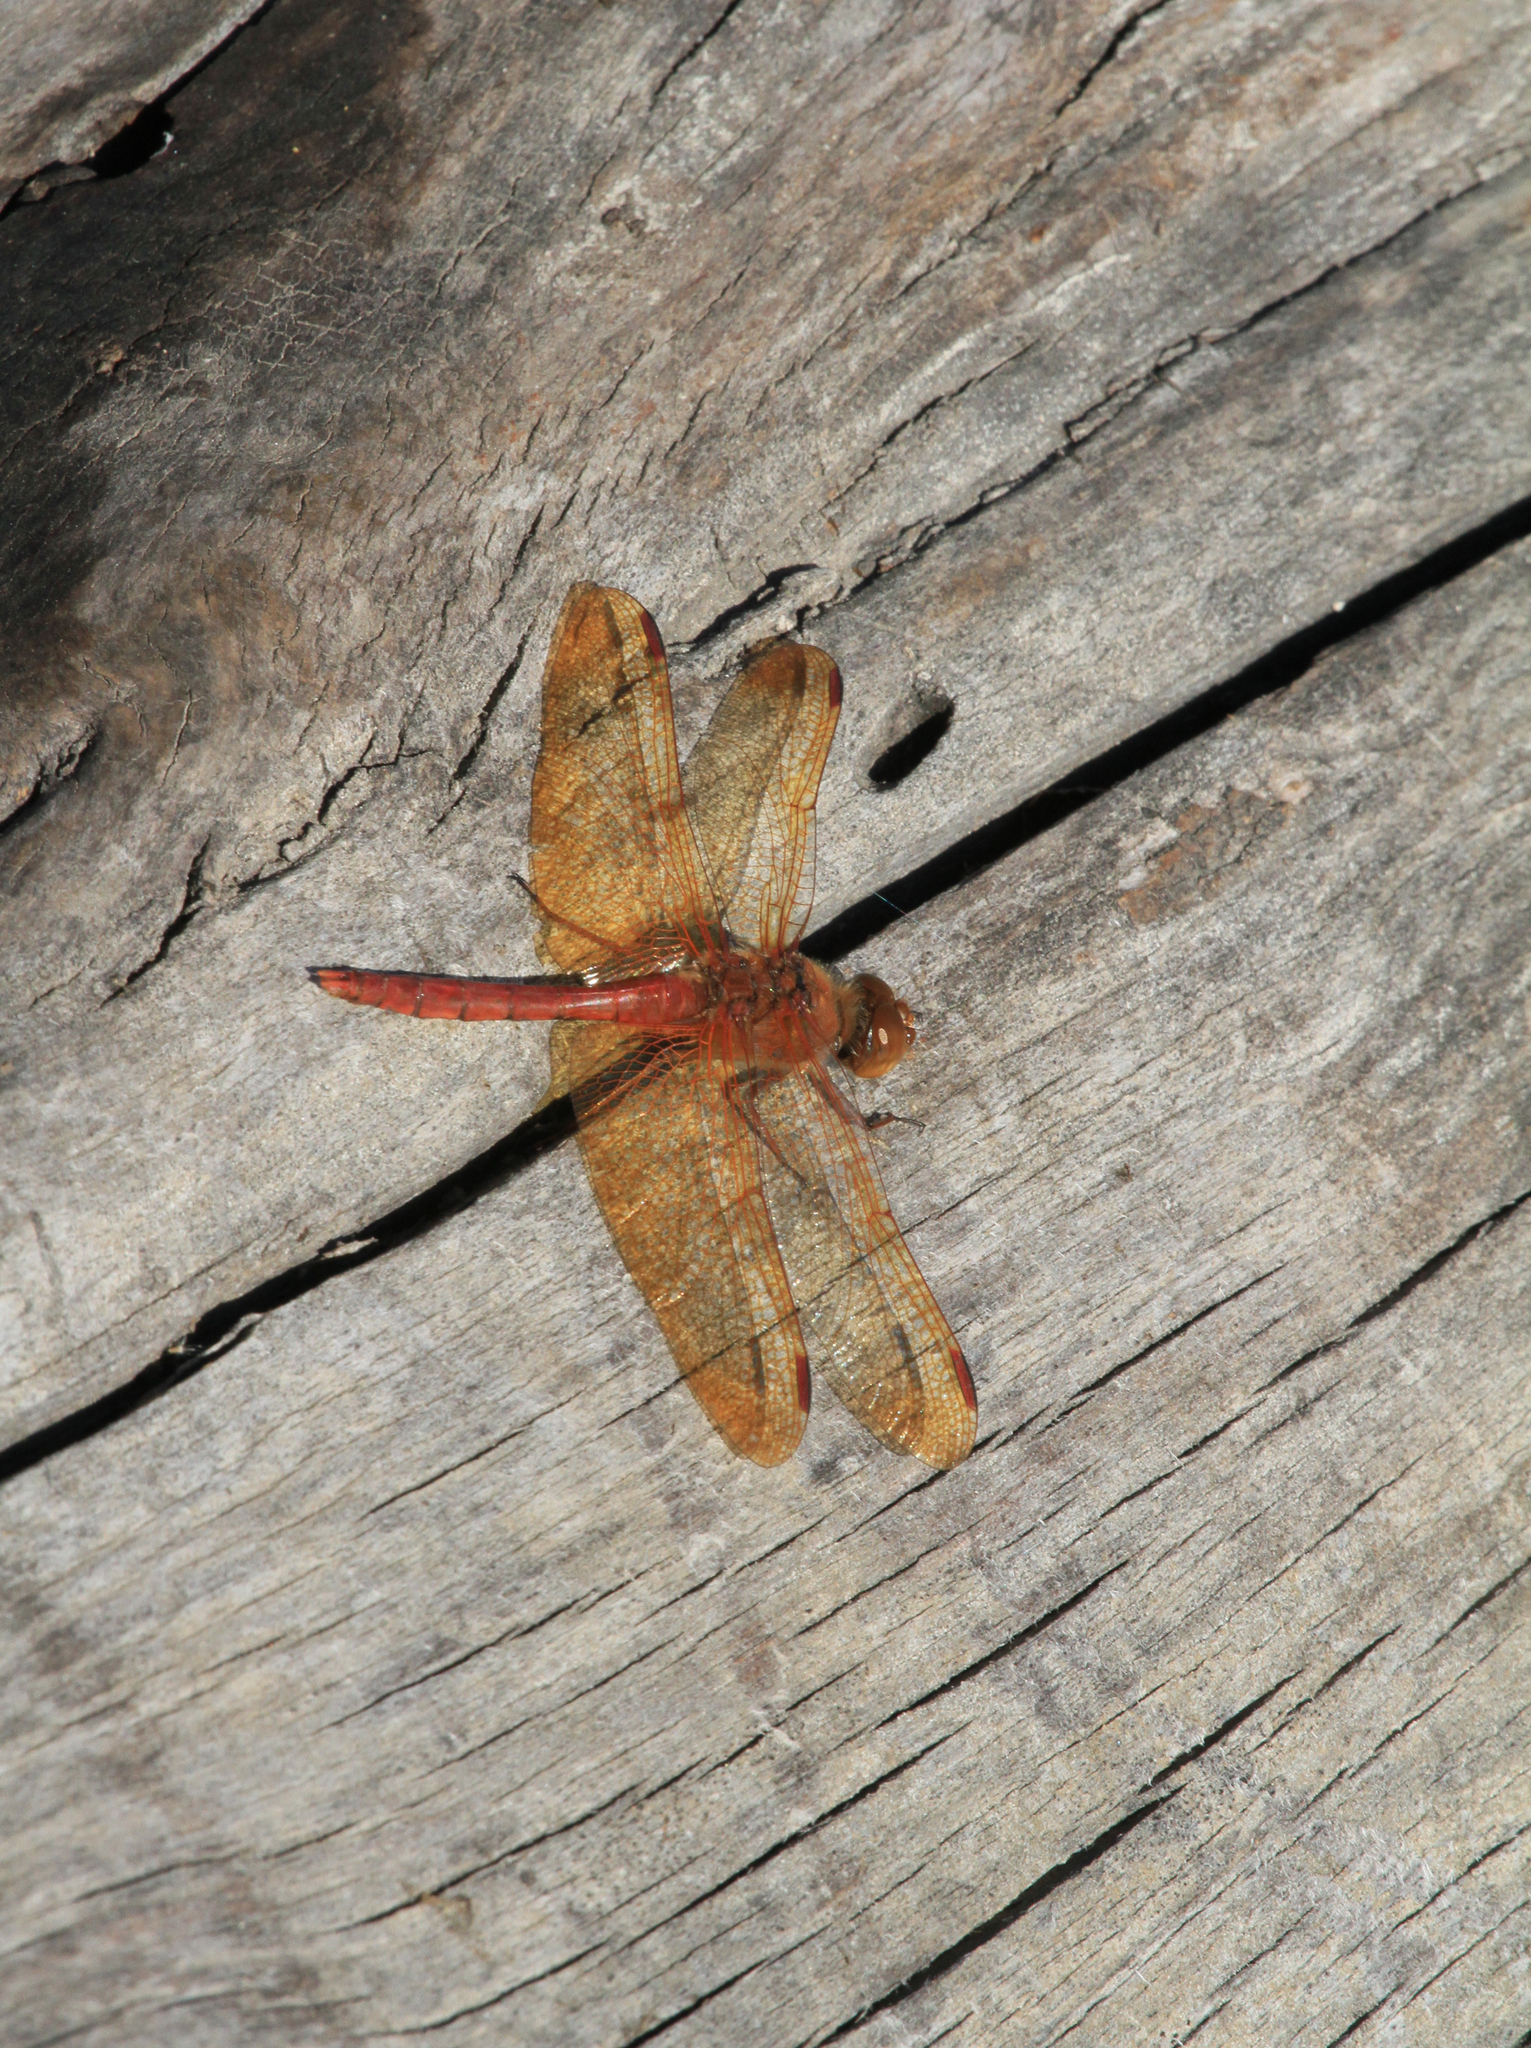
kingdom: Animalia
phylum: Arthropoda
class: Insecta
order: Odonata
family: Libellulidae
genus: Sympetrum
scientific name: Sympetrum croceolum
